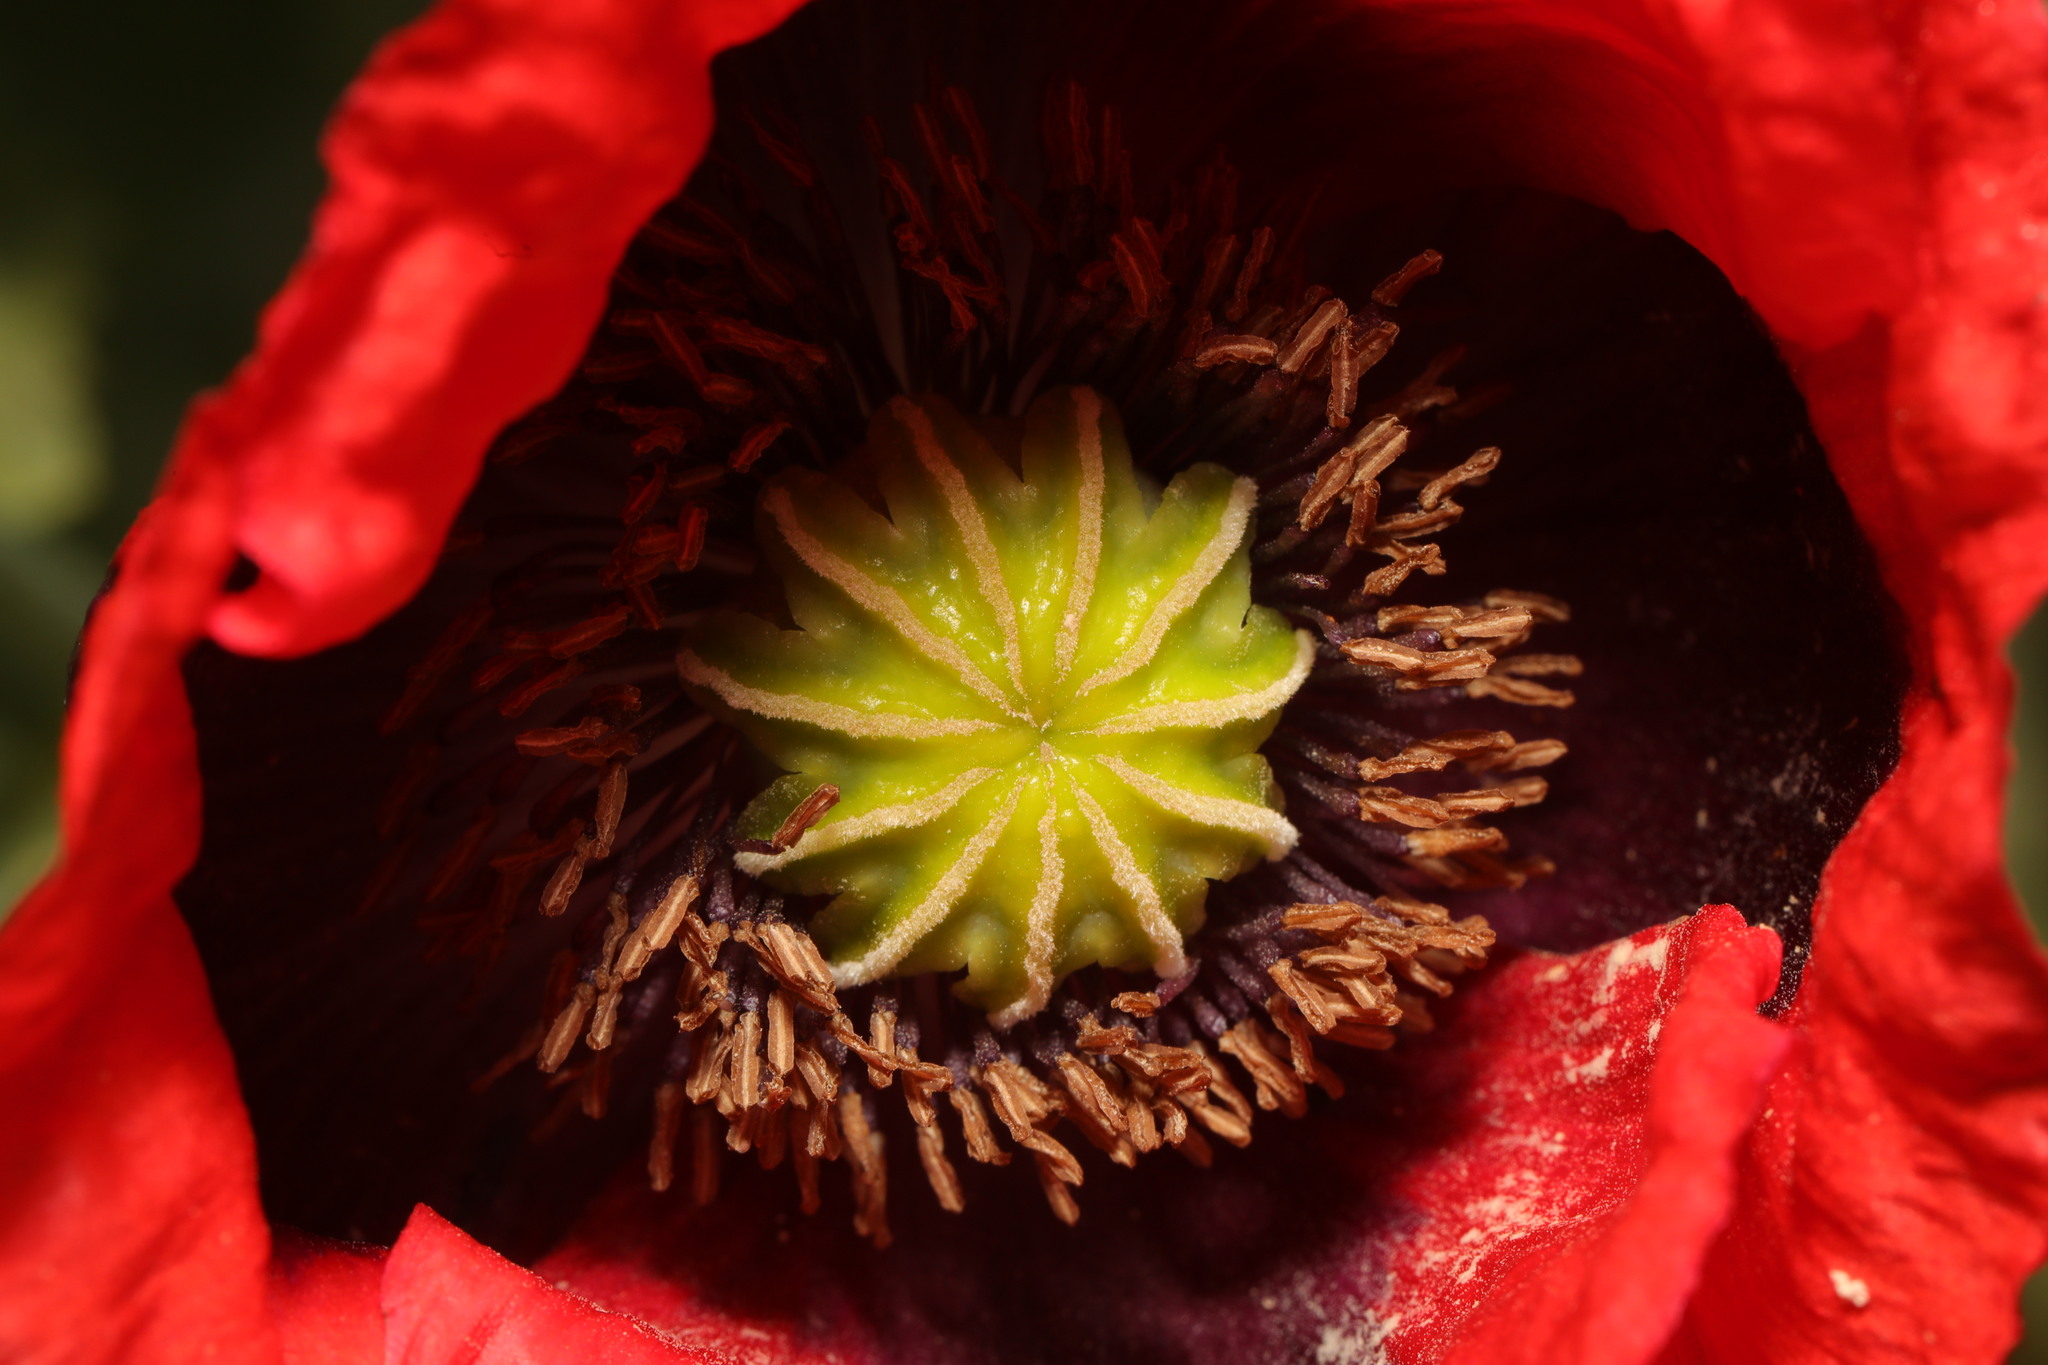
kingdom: Plantae
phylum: Tracheophyta
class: Magnoliopsida
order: Ranunculales
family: Papaveraceae
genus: Papaver
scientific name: Papaver somniferum
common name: Opium poppy
